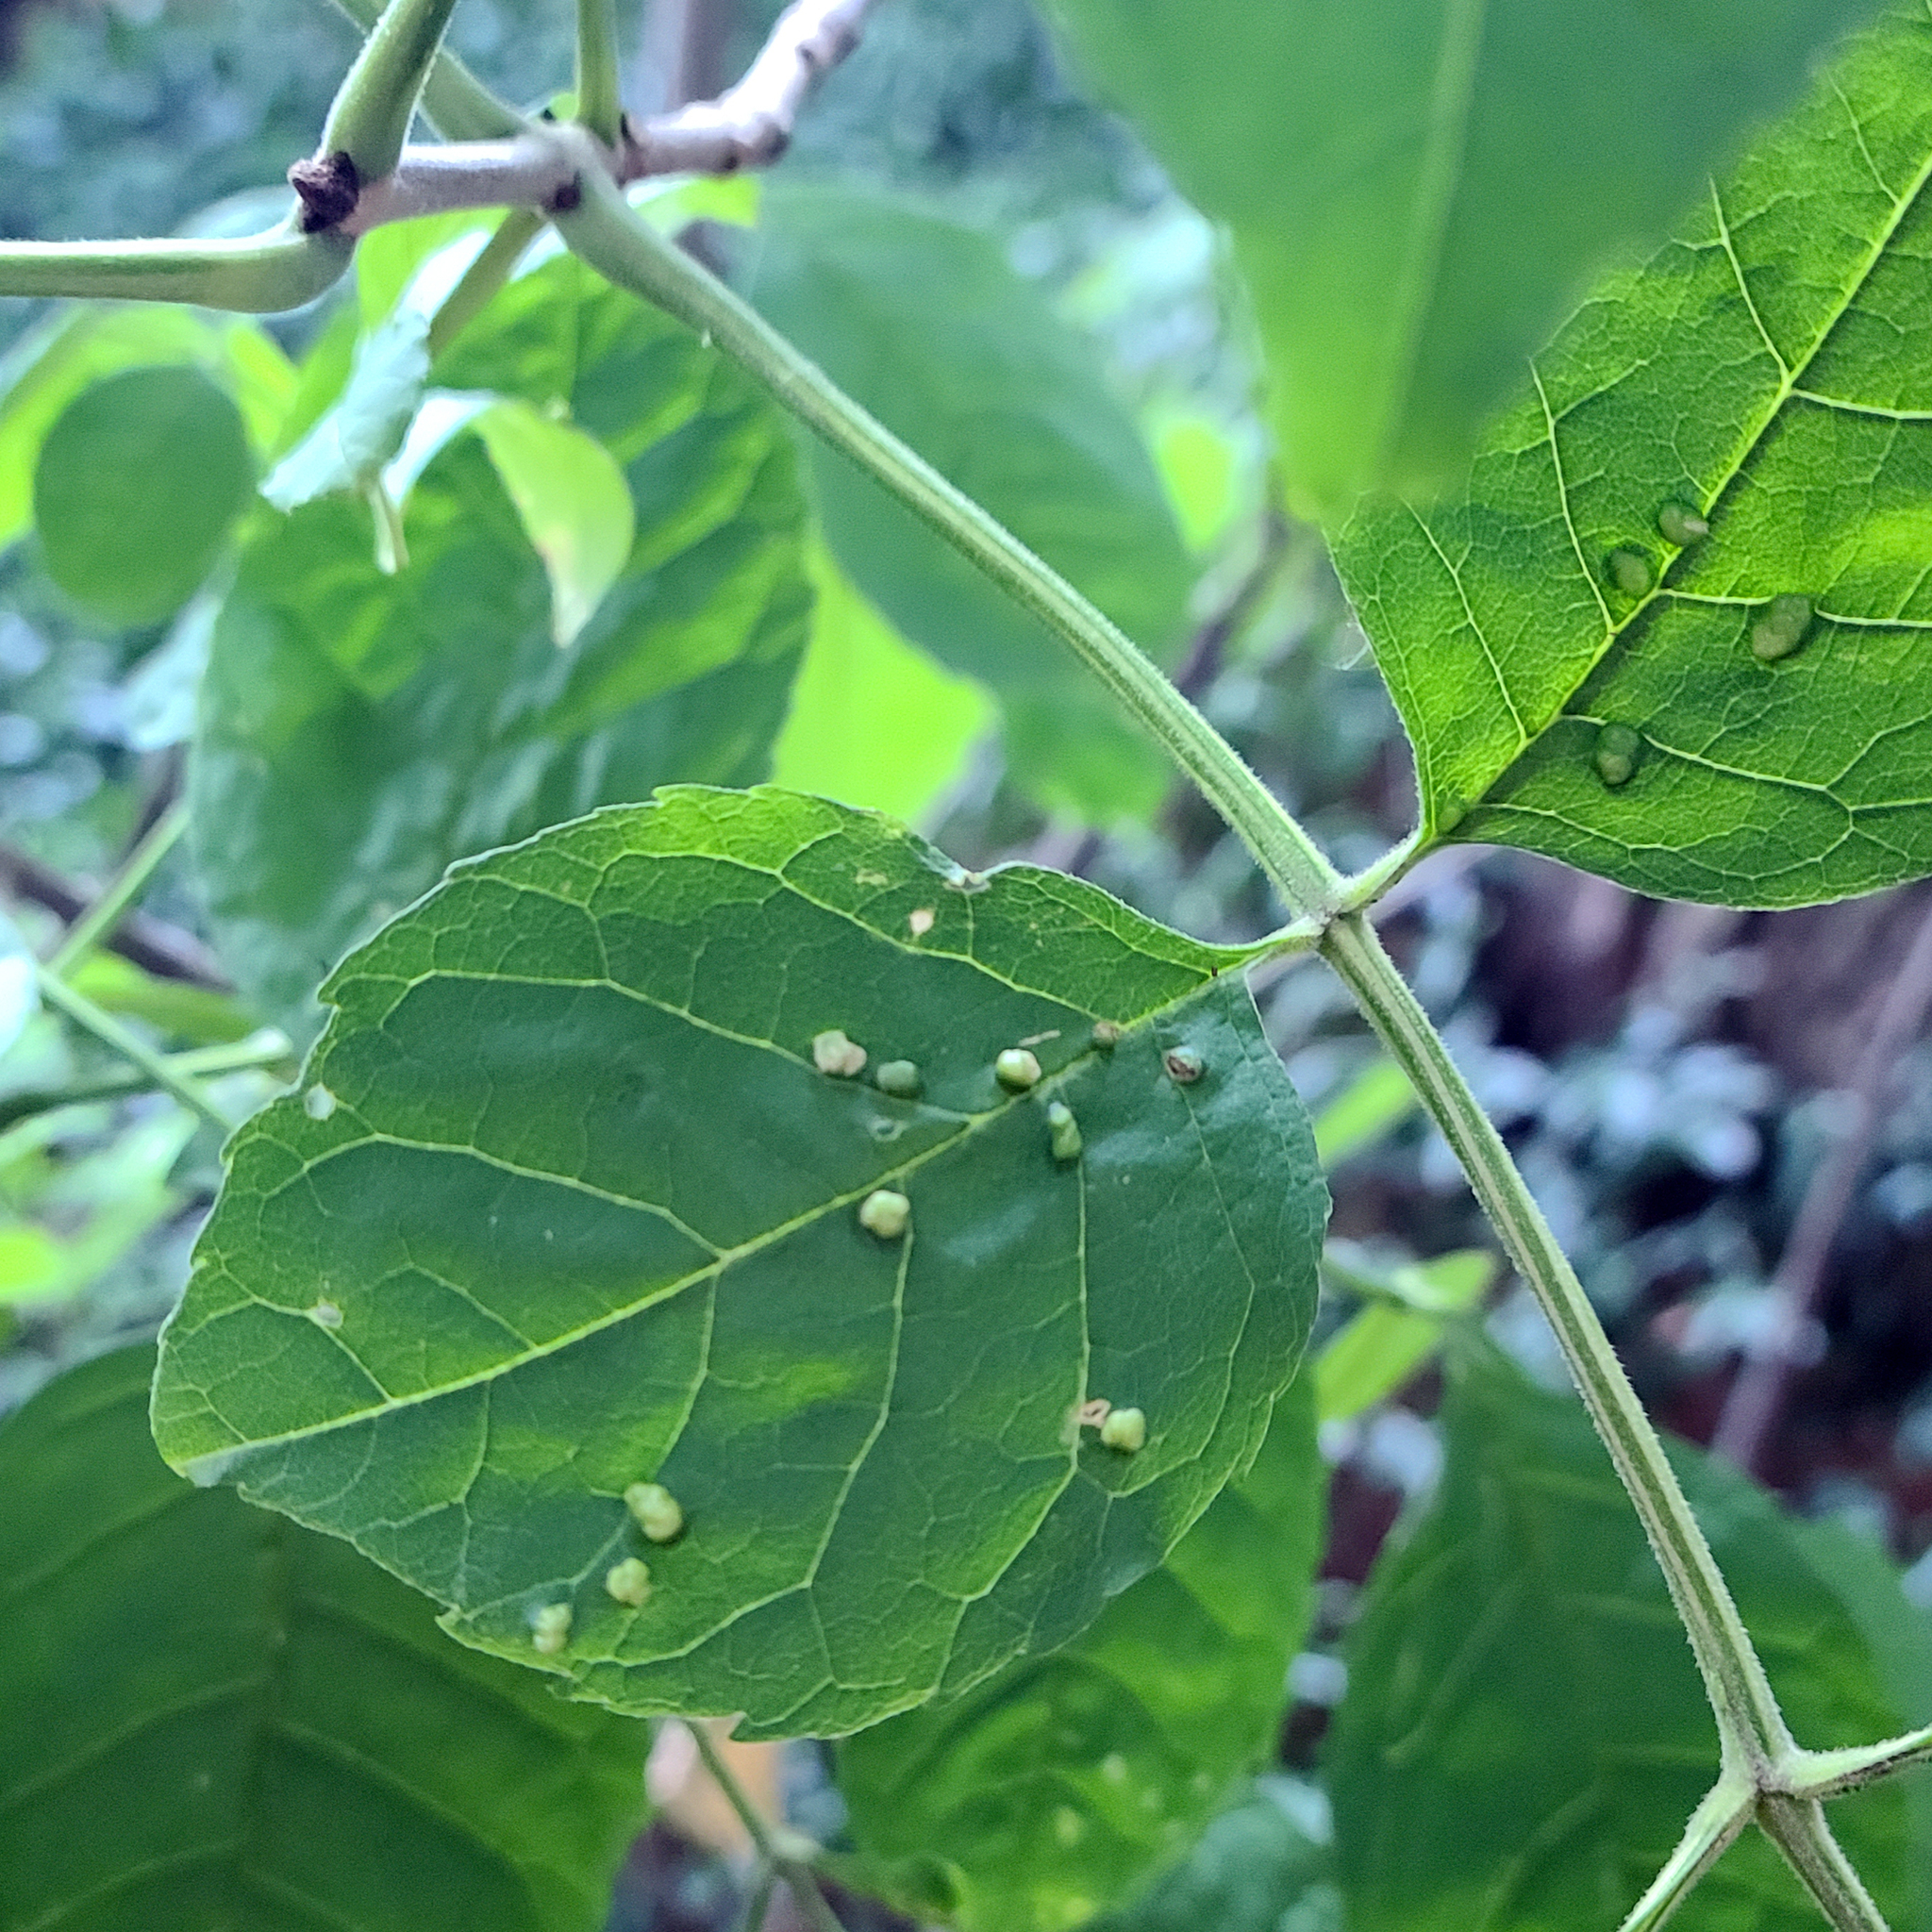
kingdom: Animalia
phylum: Arthropoda
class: Arachnida
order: Trombidiformes
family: Eriophyidae
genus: Aceria
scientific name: Aceria fraxinicola
